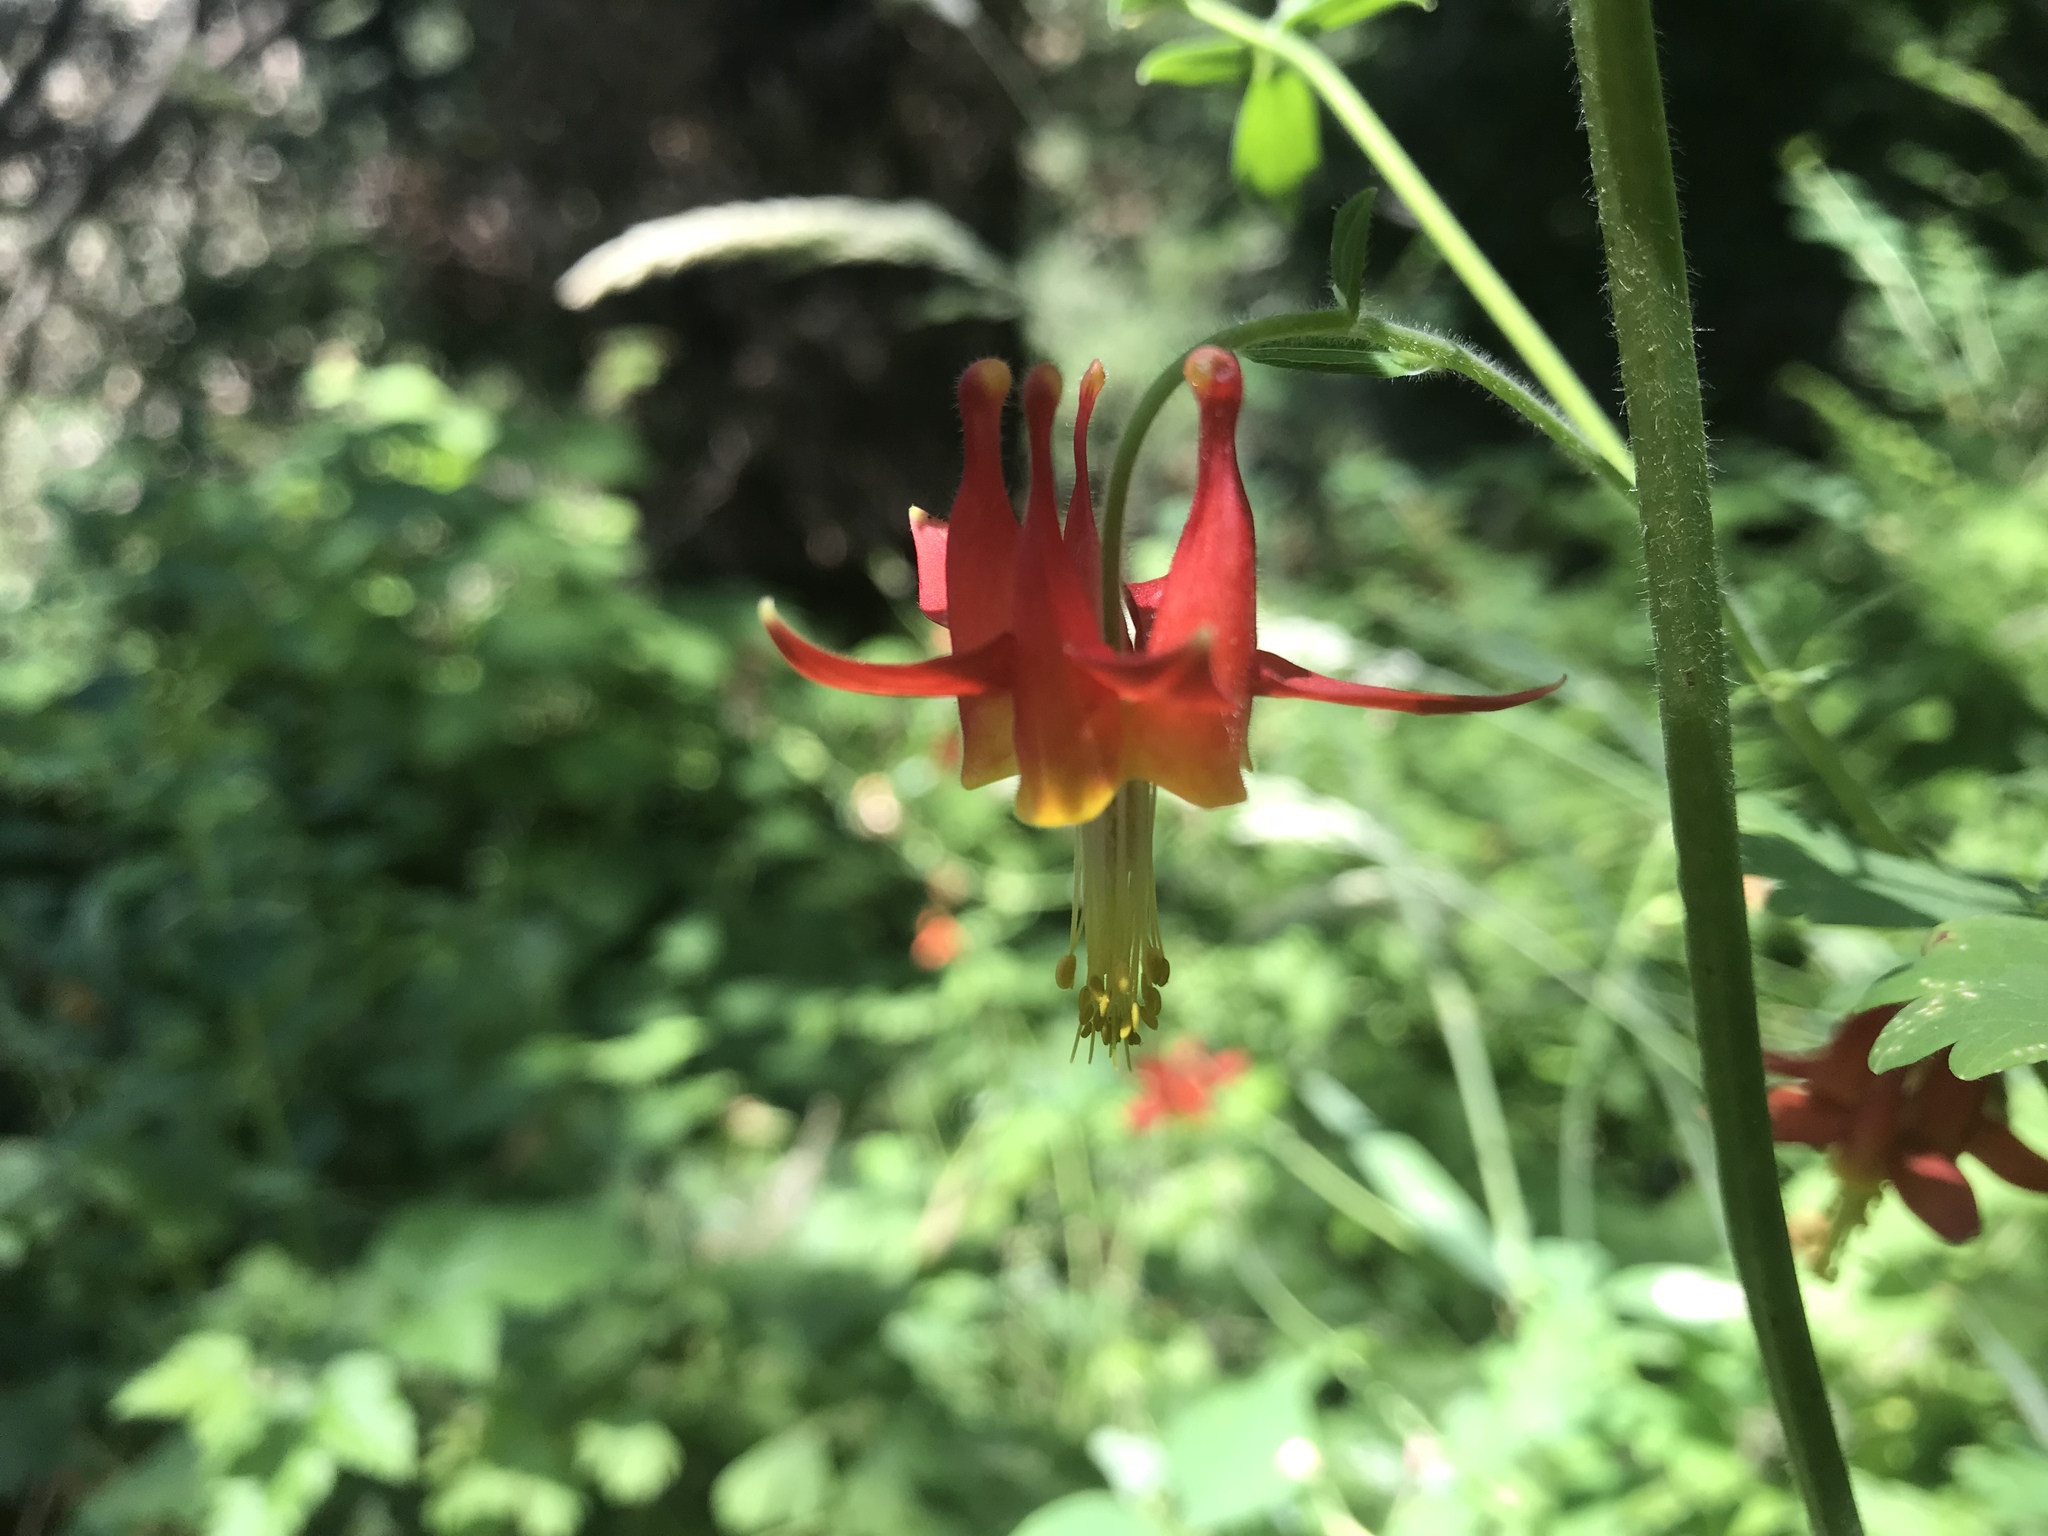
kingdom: Plantae
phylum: Tracheophyta
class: Magnoliopsida
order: Ranunculales
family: Ranunculaceae
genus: Aquilegia
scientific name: Aquilegia formosa
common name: Sitka columbine
